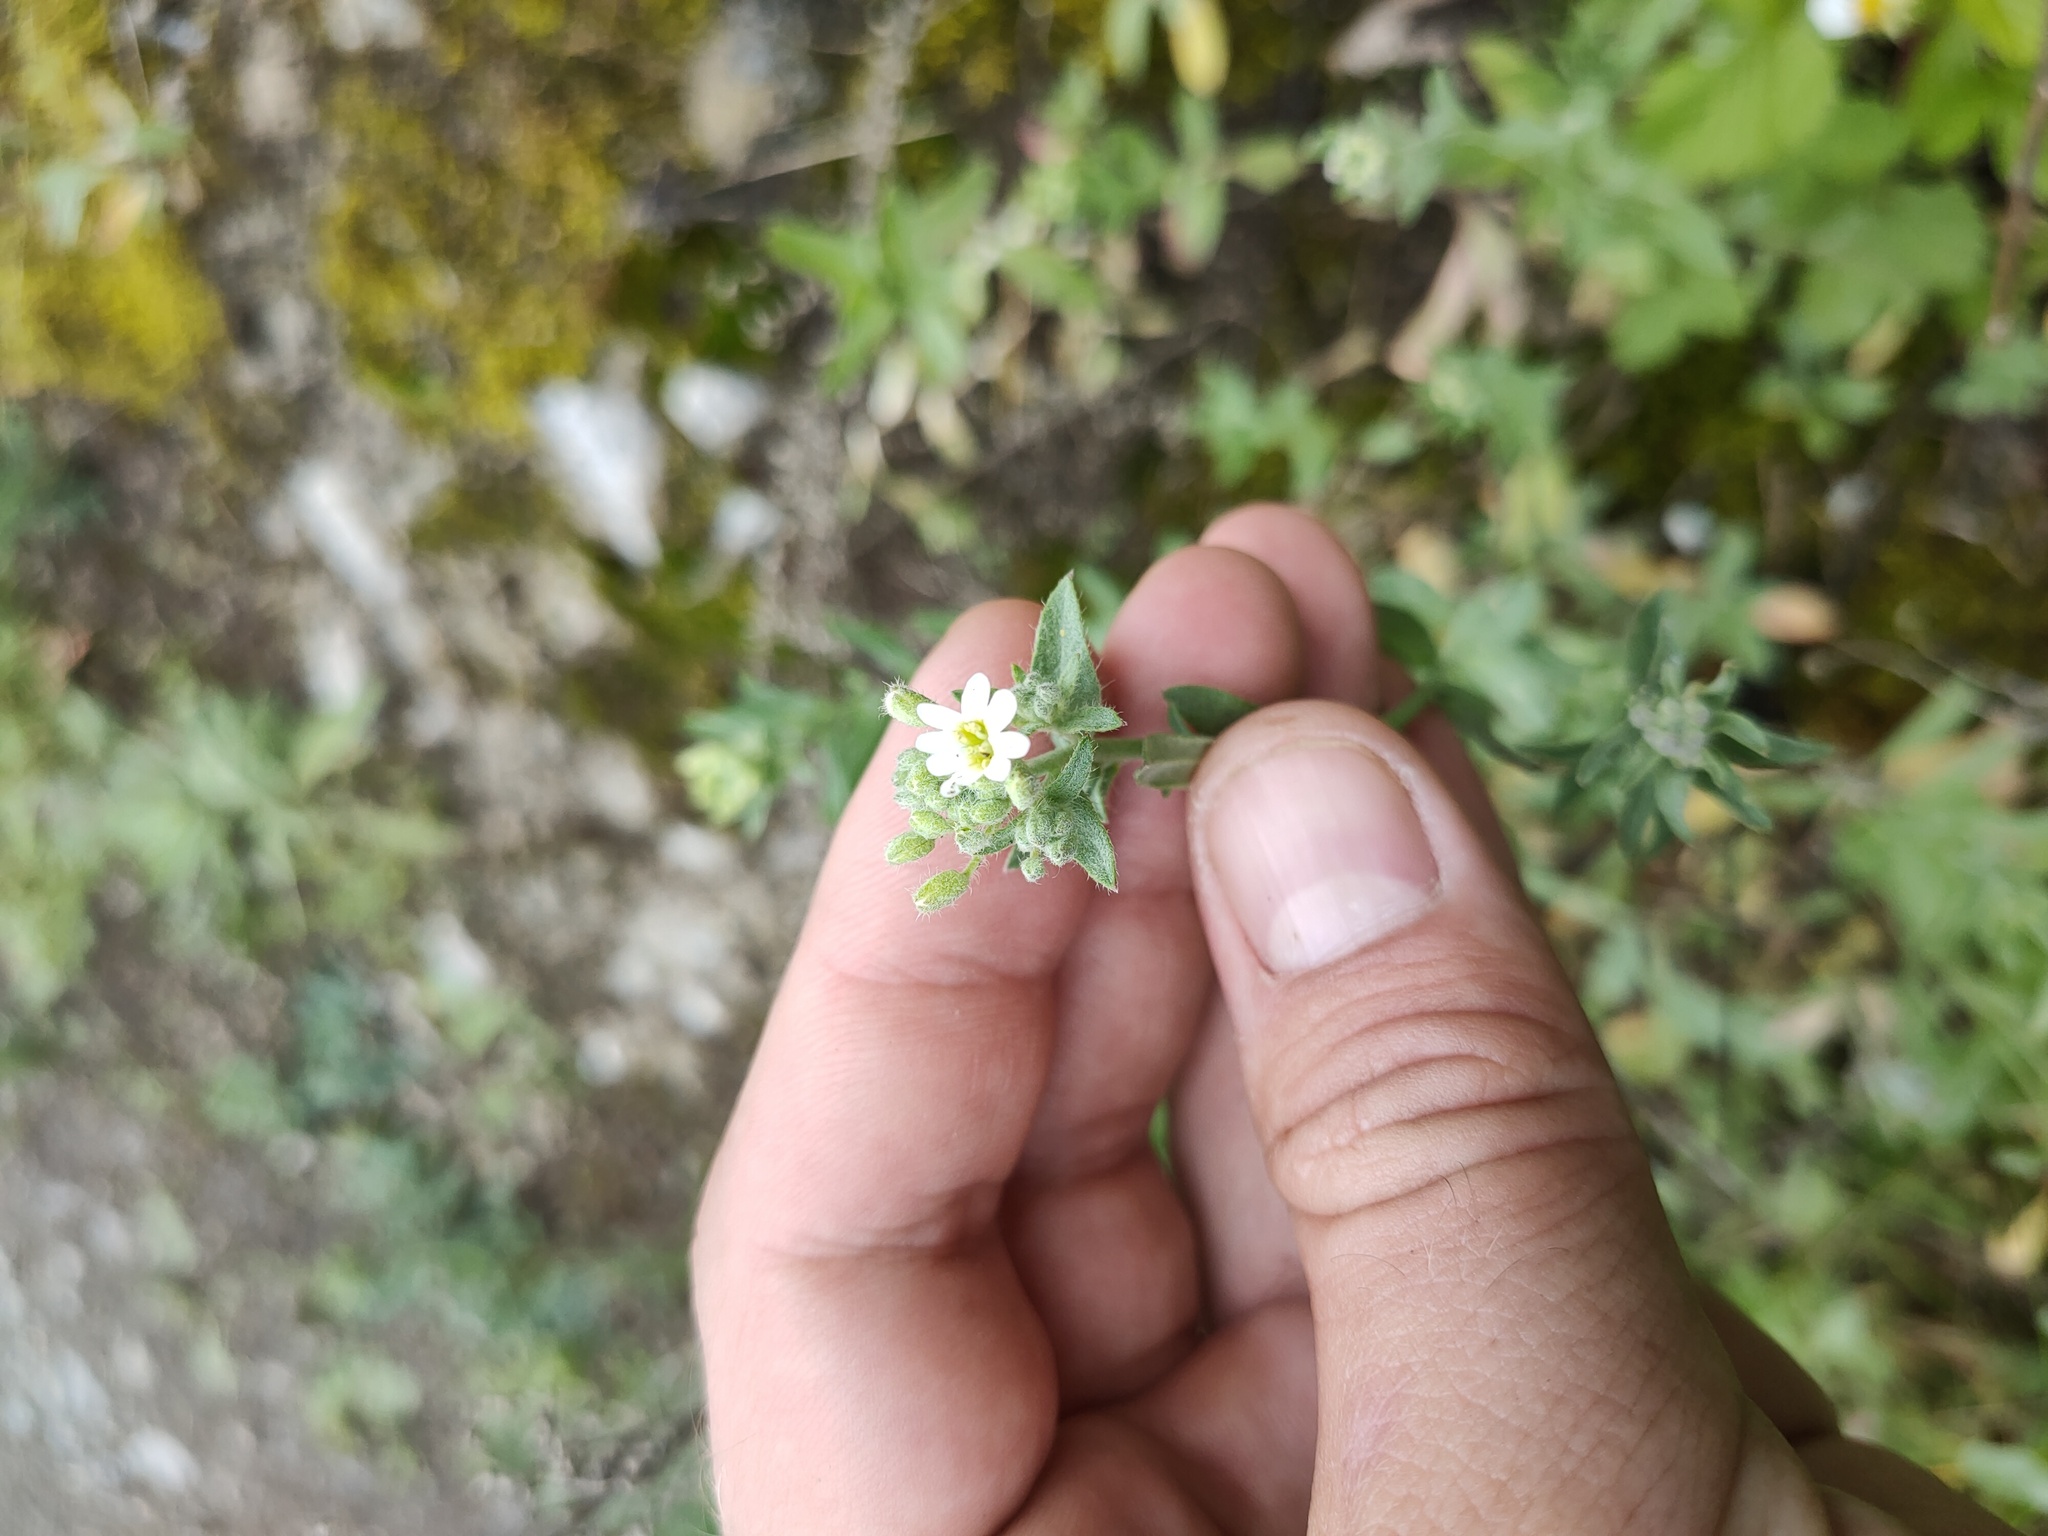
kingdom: Plantae
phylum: Tracheophyta
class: Magnoliopsida
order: Brassicales
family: Brassicaceae
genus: Berteroa
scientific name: Berteroa incana
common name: Hoary alison
